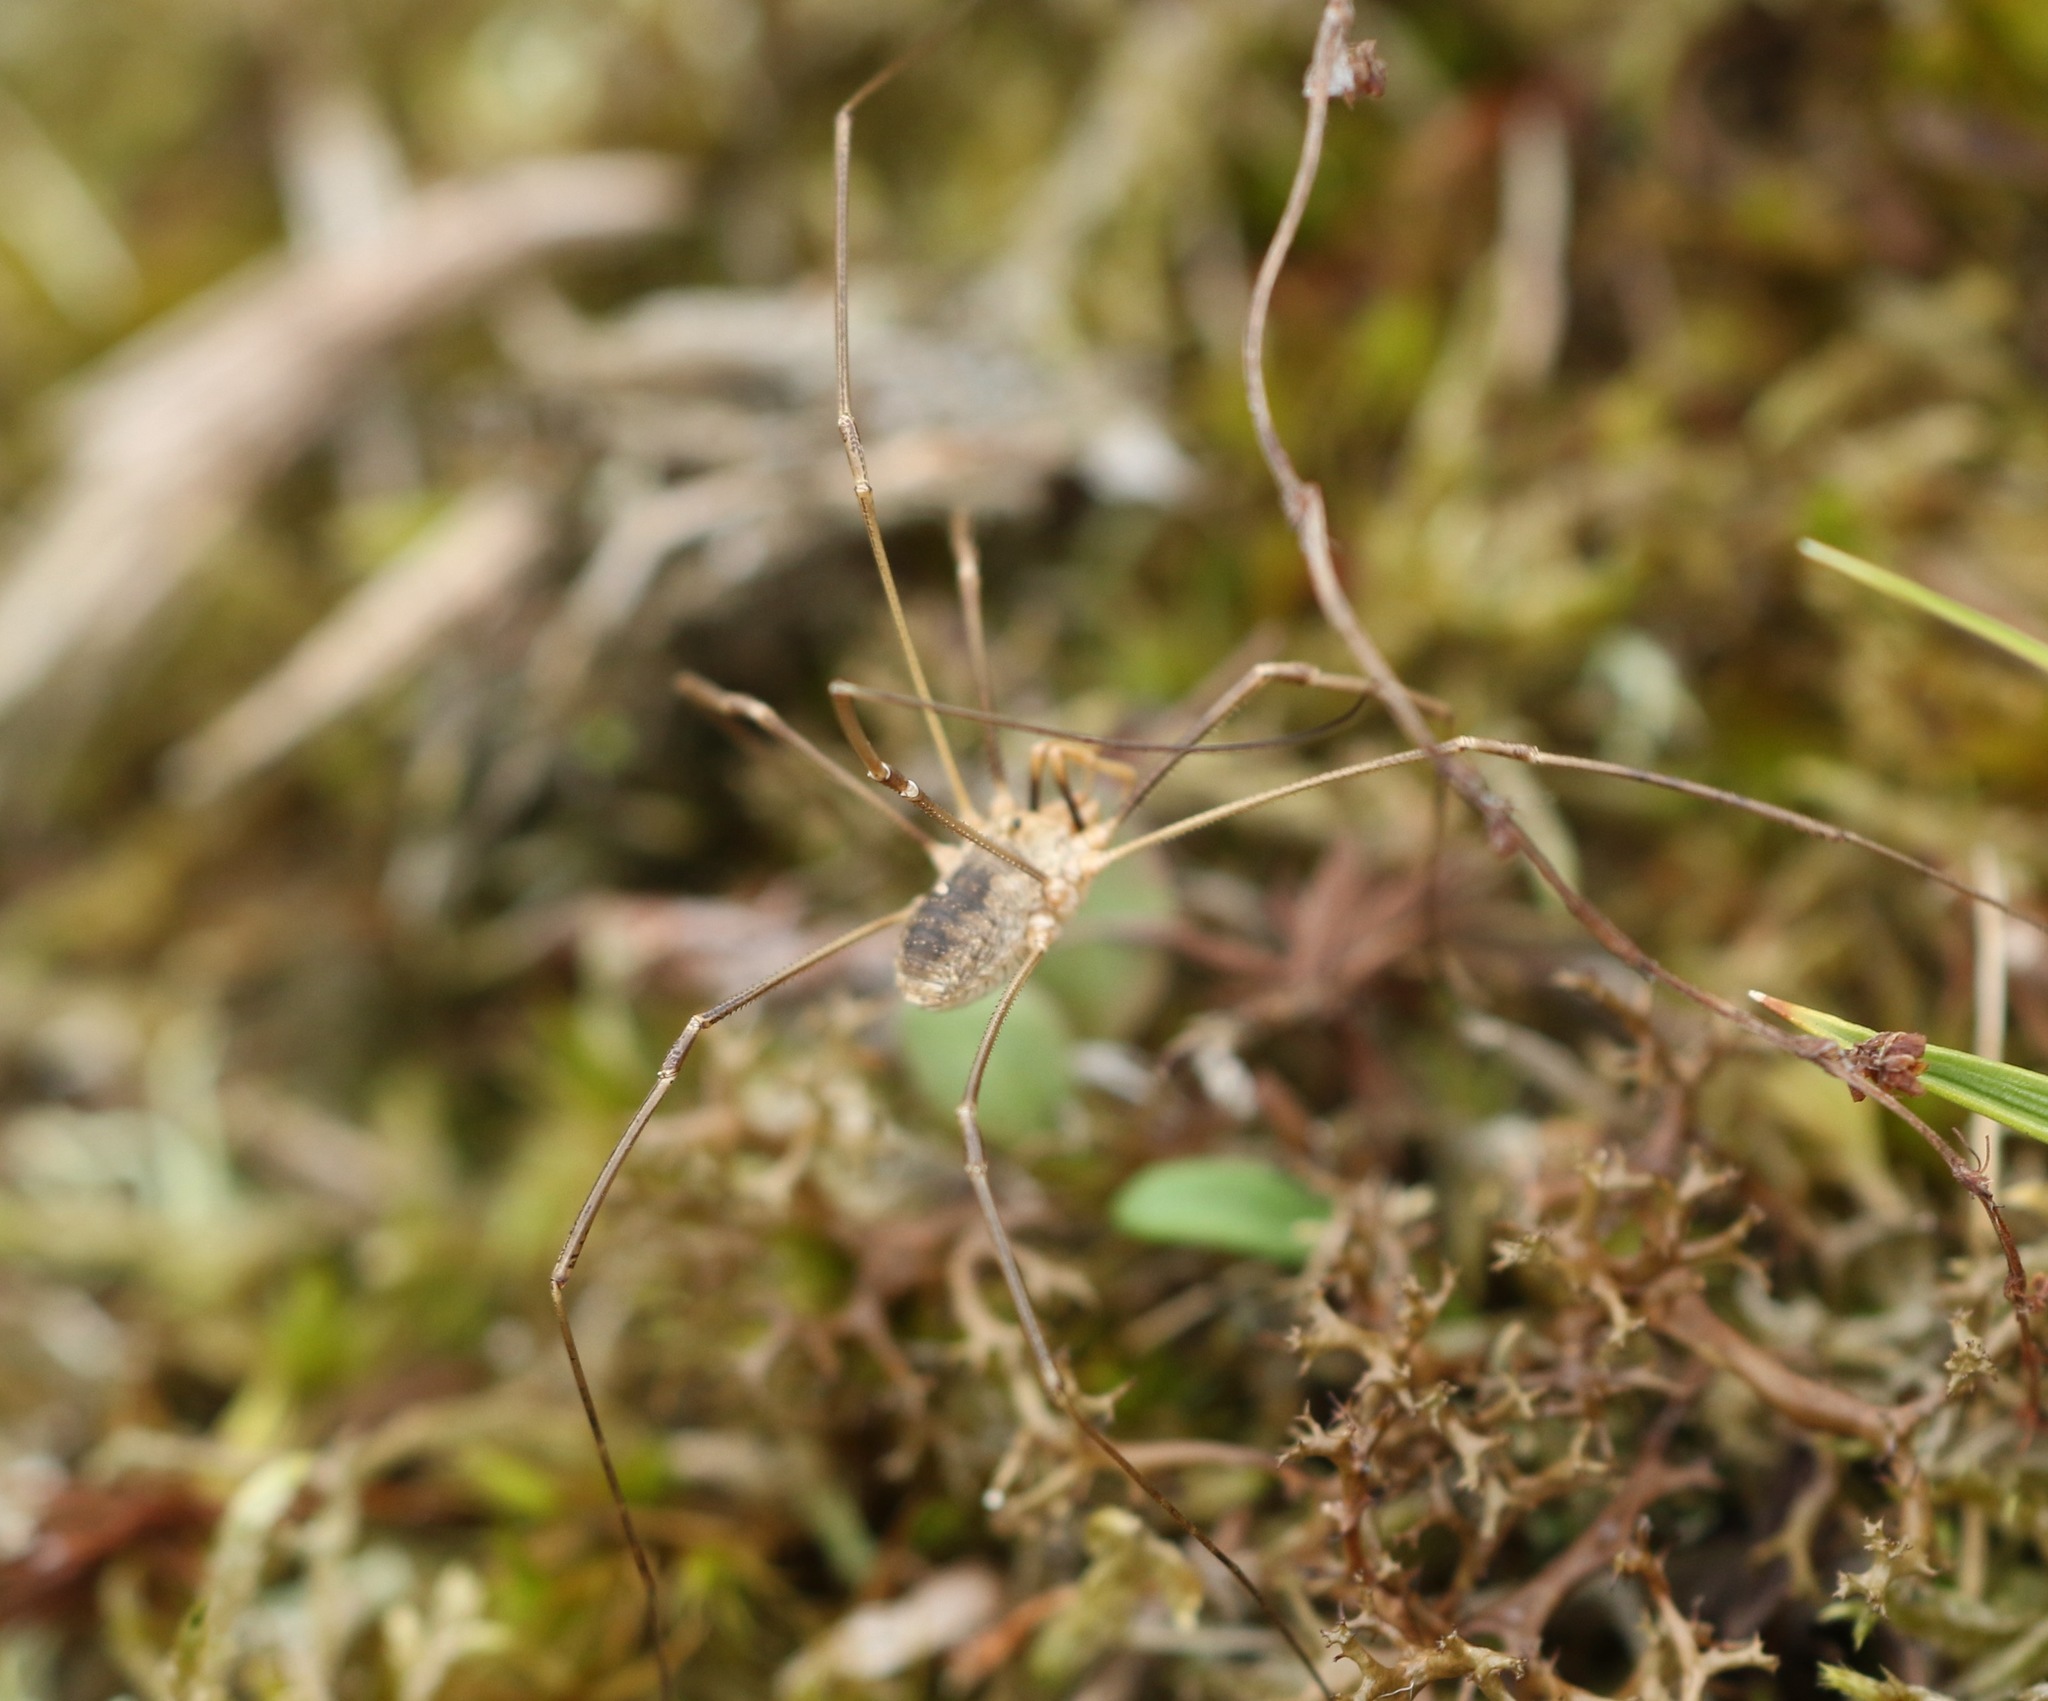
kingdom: Animalia
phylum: Arthropoda
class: Arachnida
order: Opiliones
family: Phalangiidae
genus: Phalangium
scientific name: Phalangium opilio
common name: Daddy longleg
